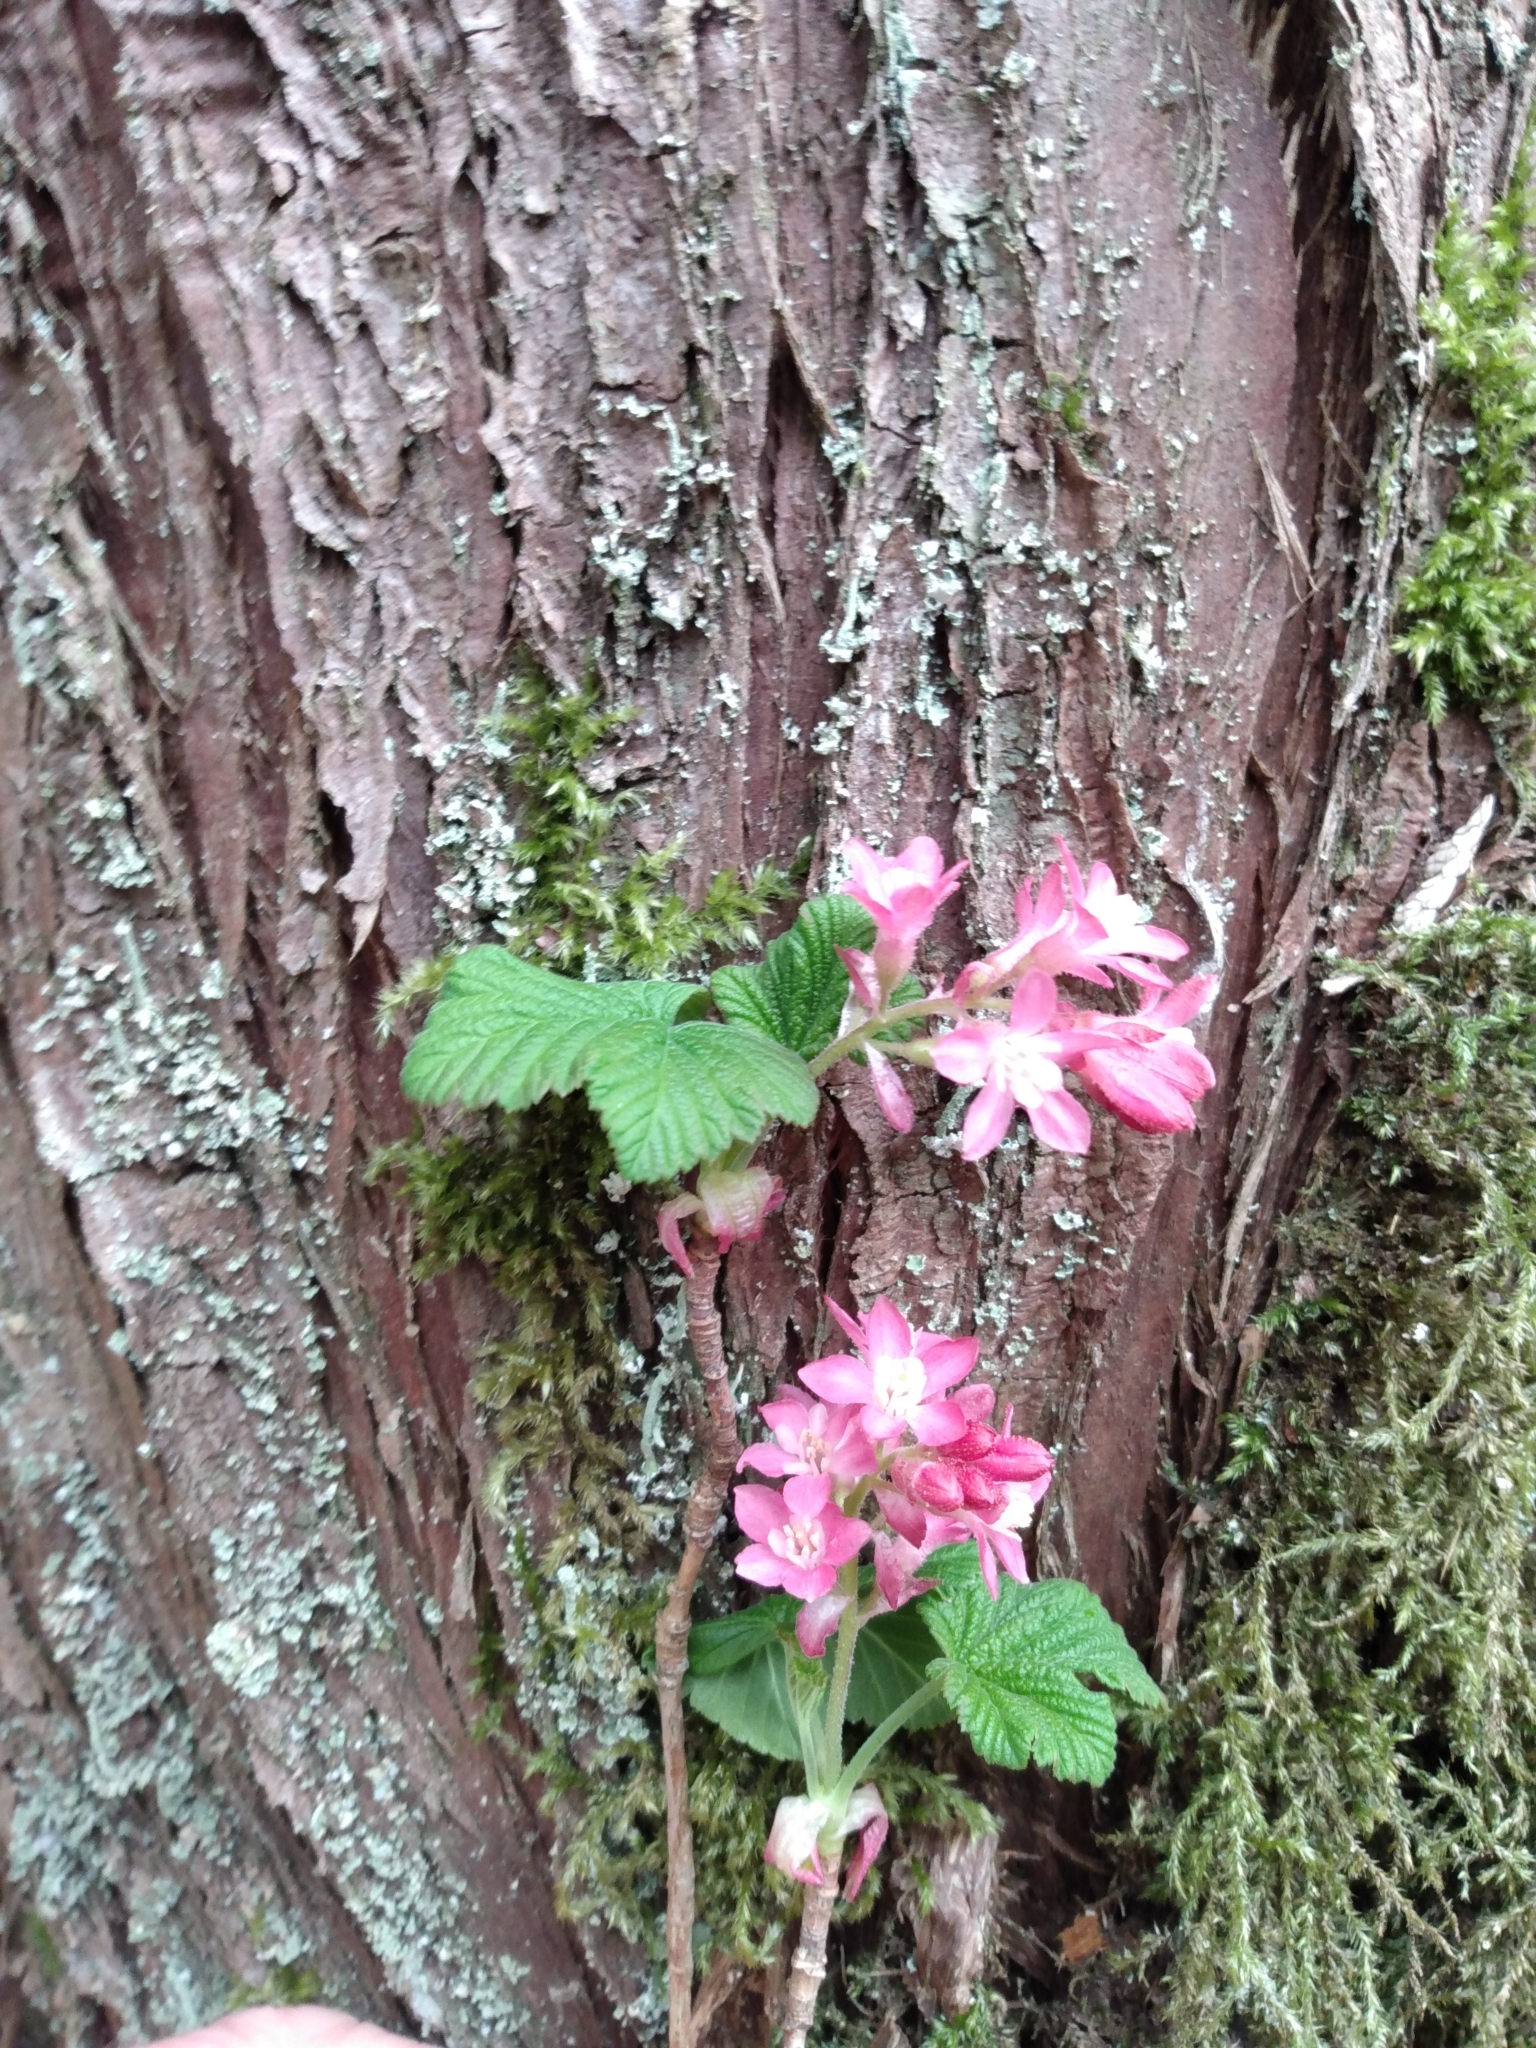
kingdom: Plantae
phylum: Tracheophyta
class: Magnoliopsida
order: Saxifragales
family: Grossulariaceae
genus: Ribes
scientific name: Ribes sanguineum
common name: Flowering currant
